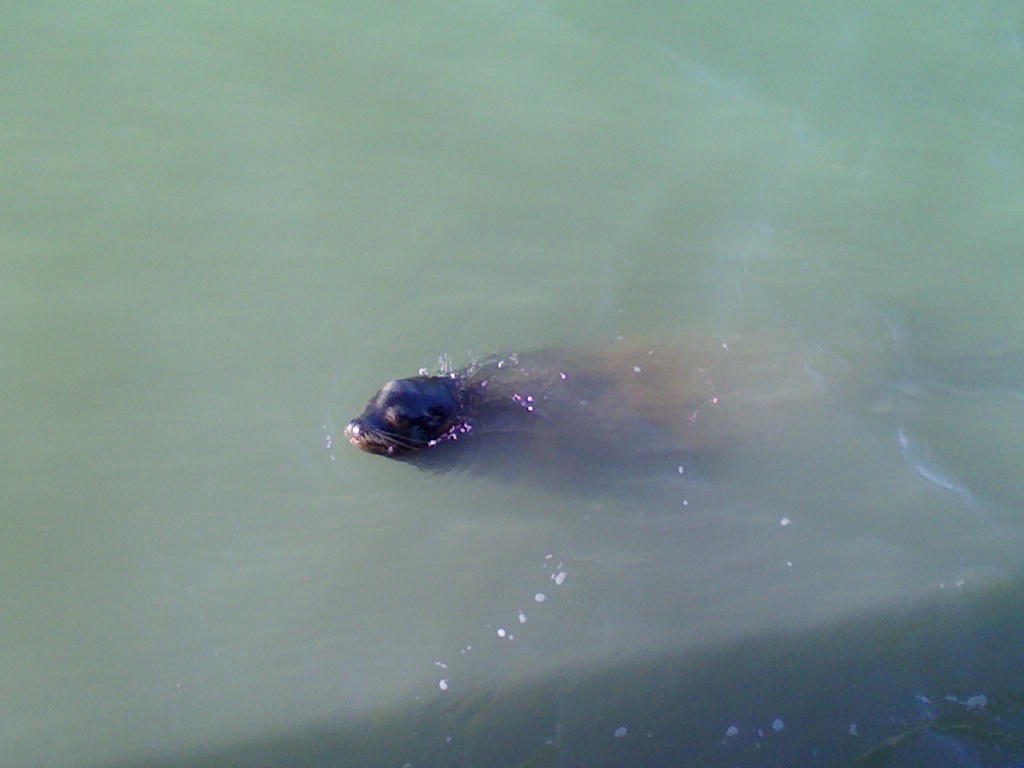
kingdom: Animalia
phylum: Chordata
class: Mammalia
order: Carnivora
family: Otariidae
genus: Zalophus
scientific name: Zalophus californianus
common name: California sea lion
